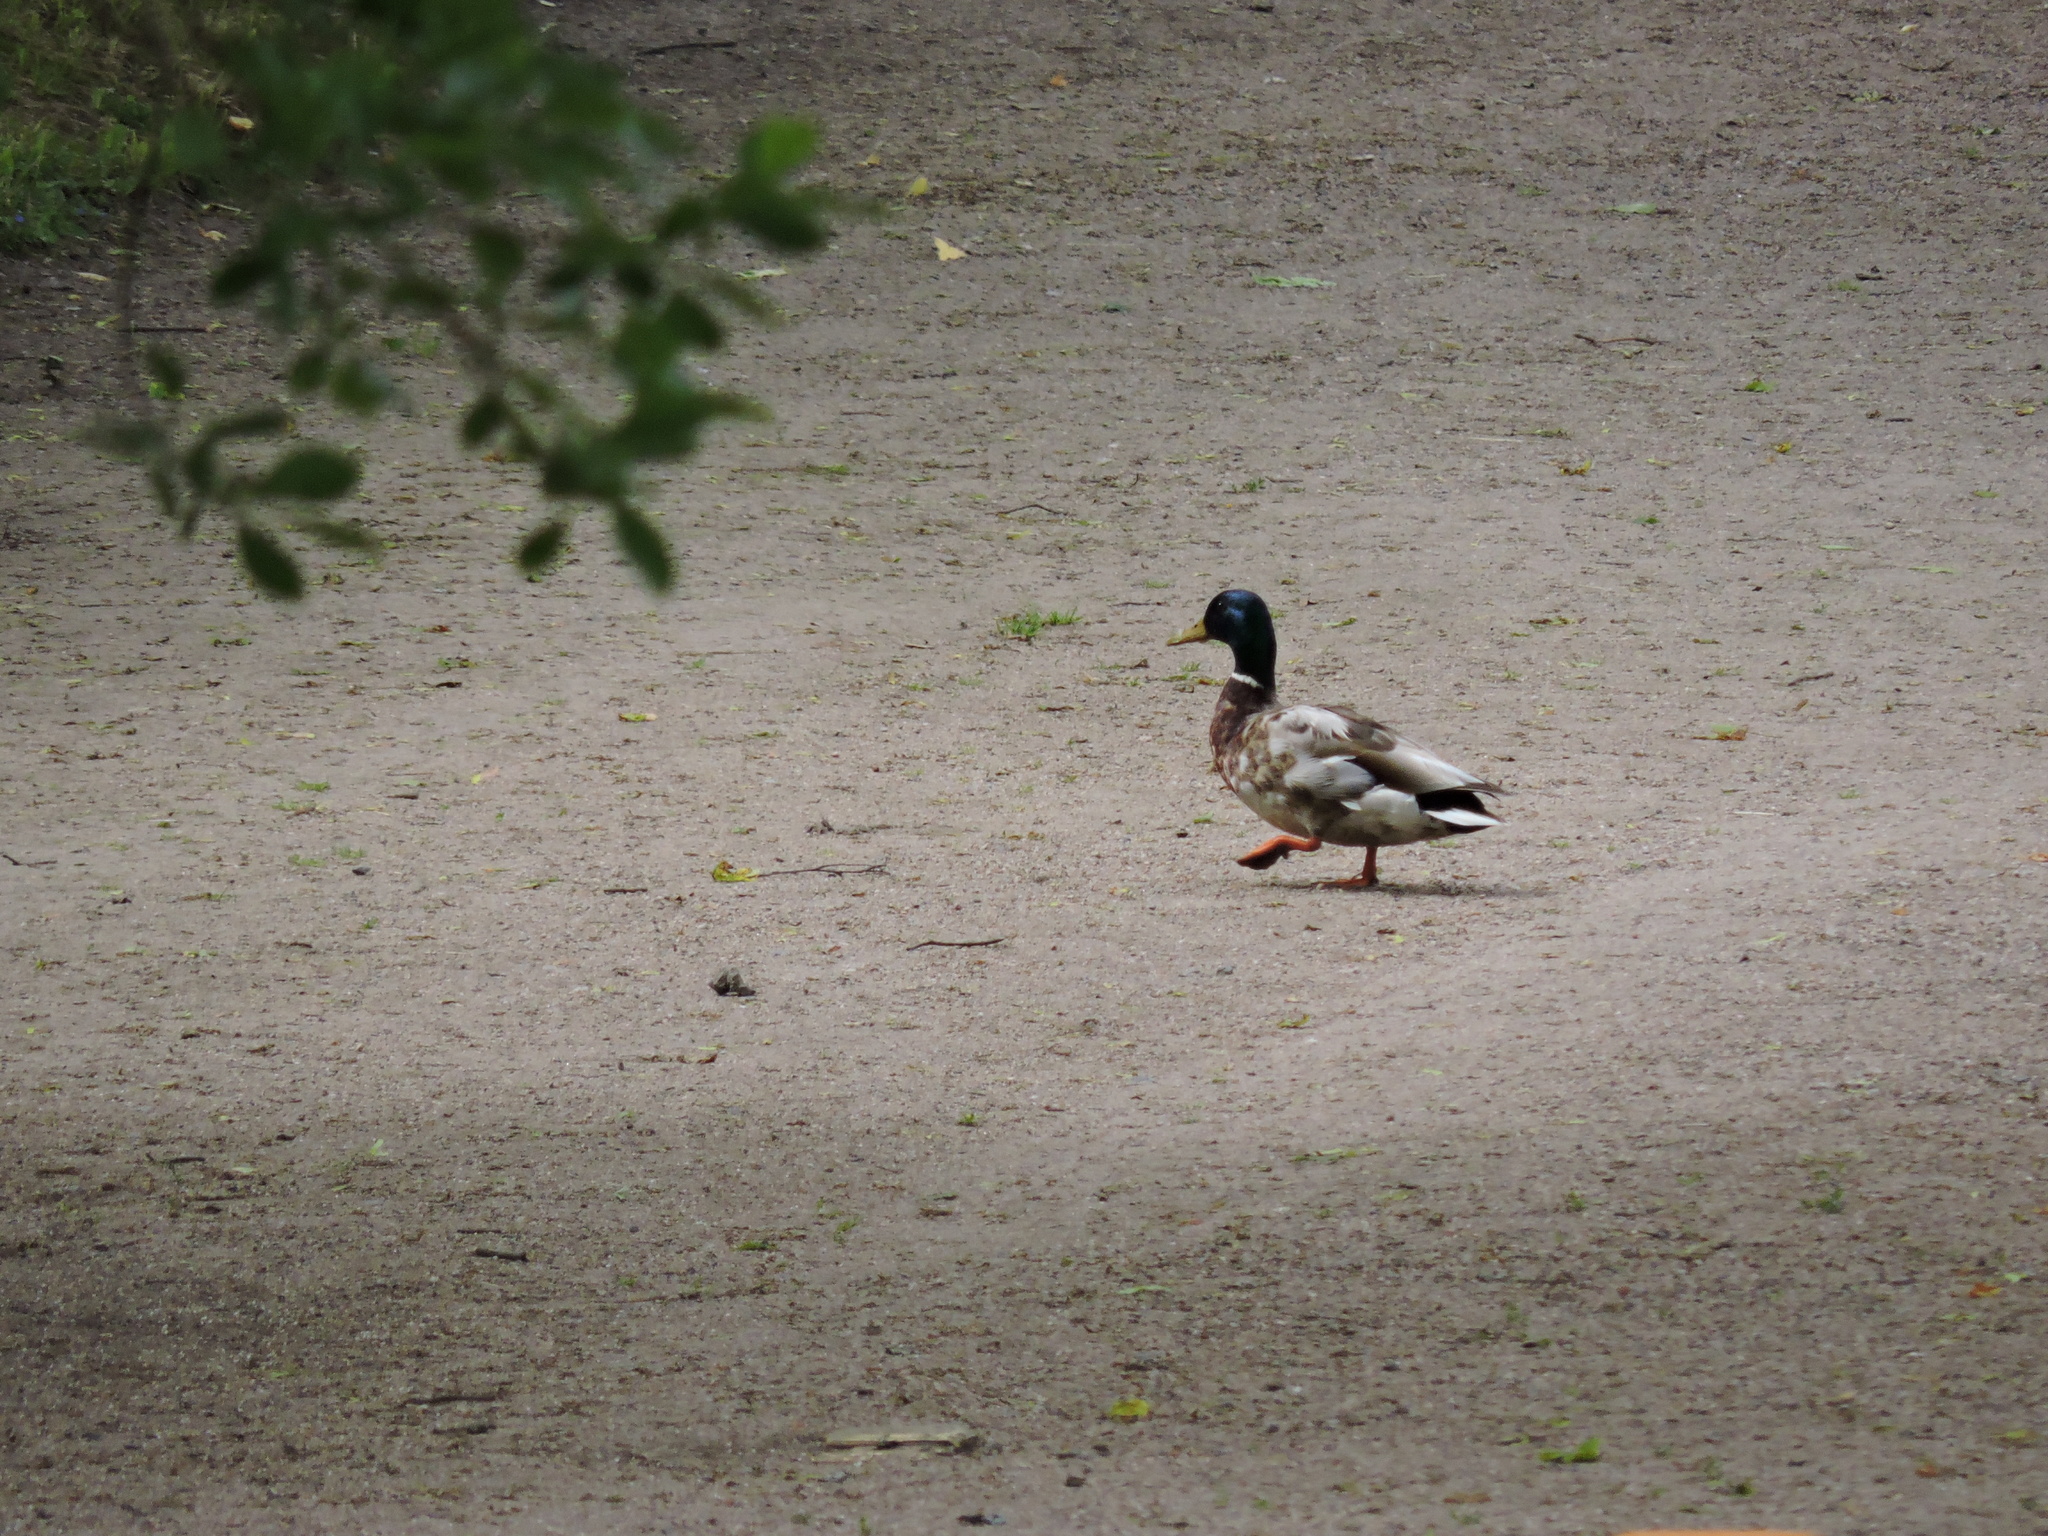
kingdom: Animalia
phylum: Chordata
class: Aves
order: Anseriformes
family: Anatidae
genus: Anas
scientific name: Anas platyrhynchos
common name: Mallard
